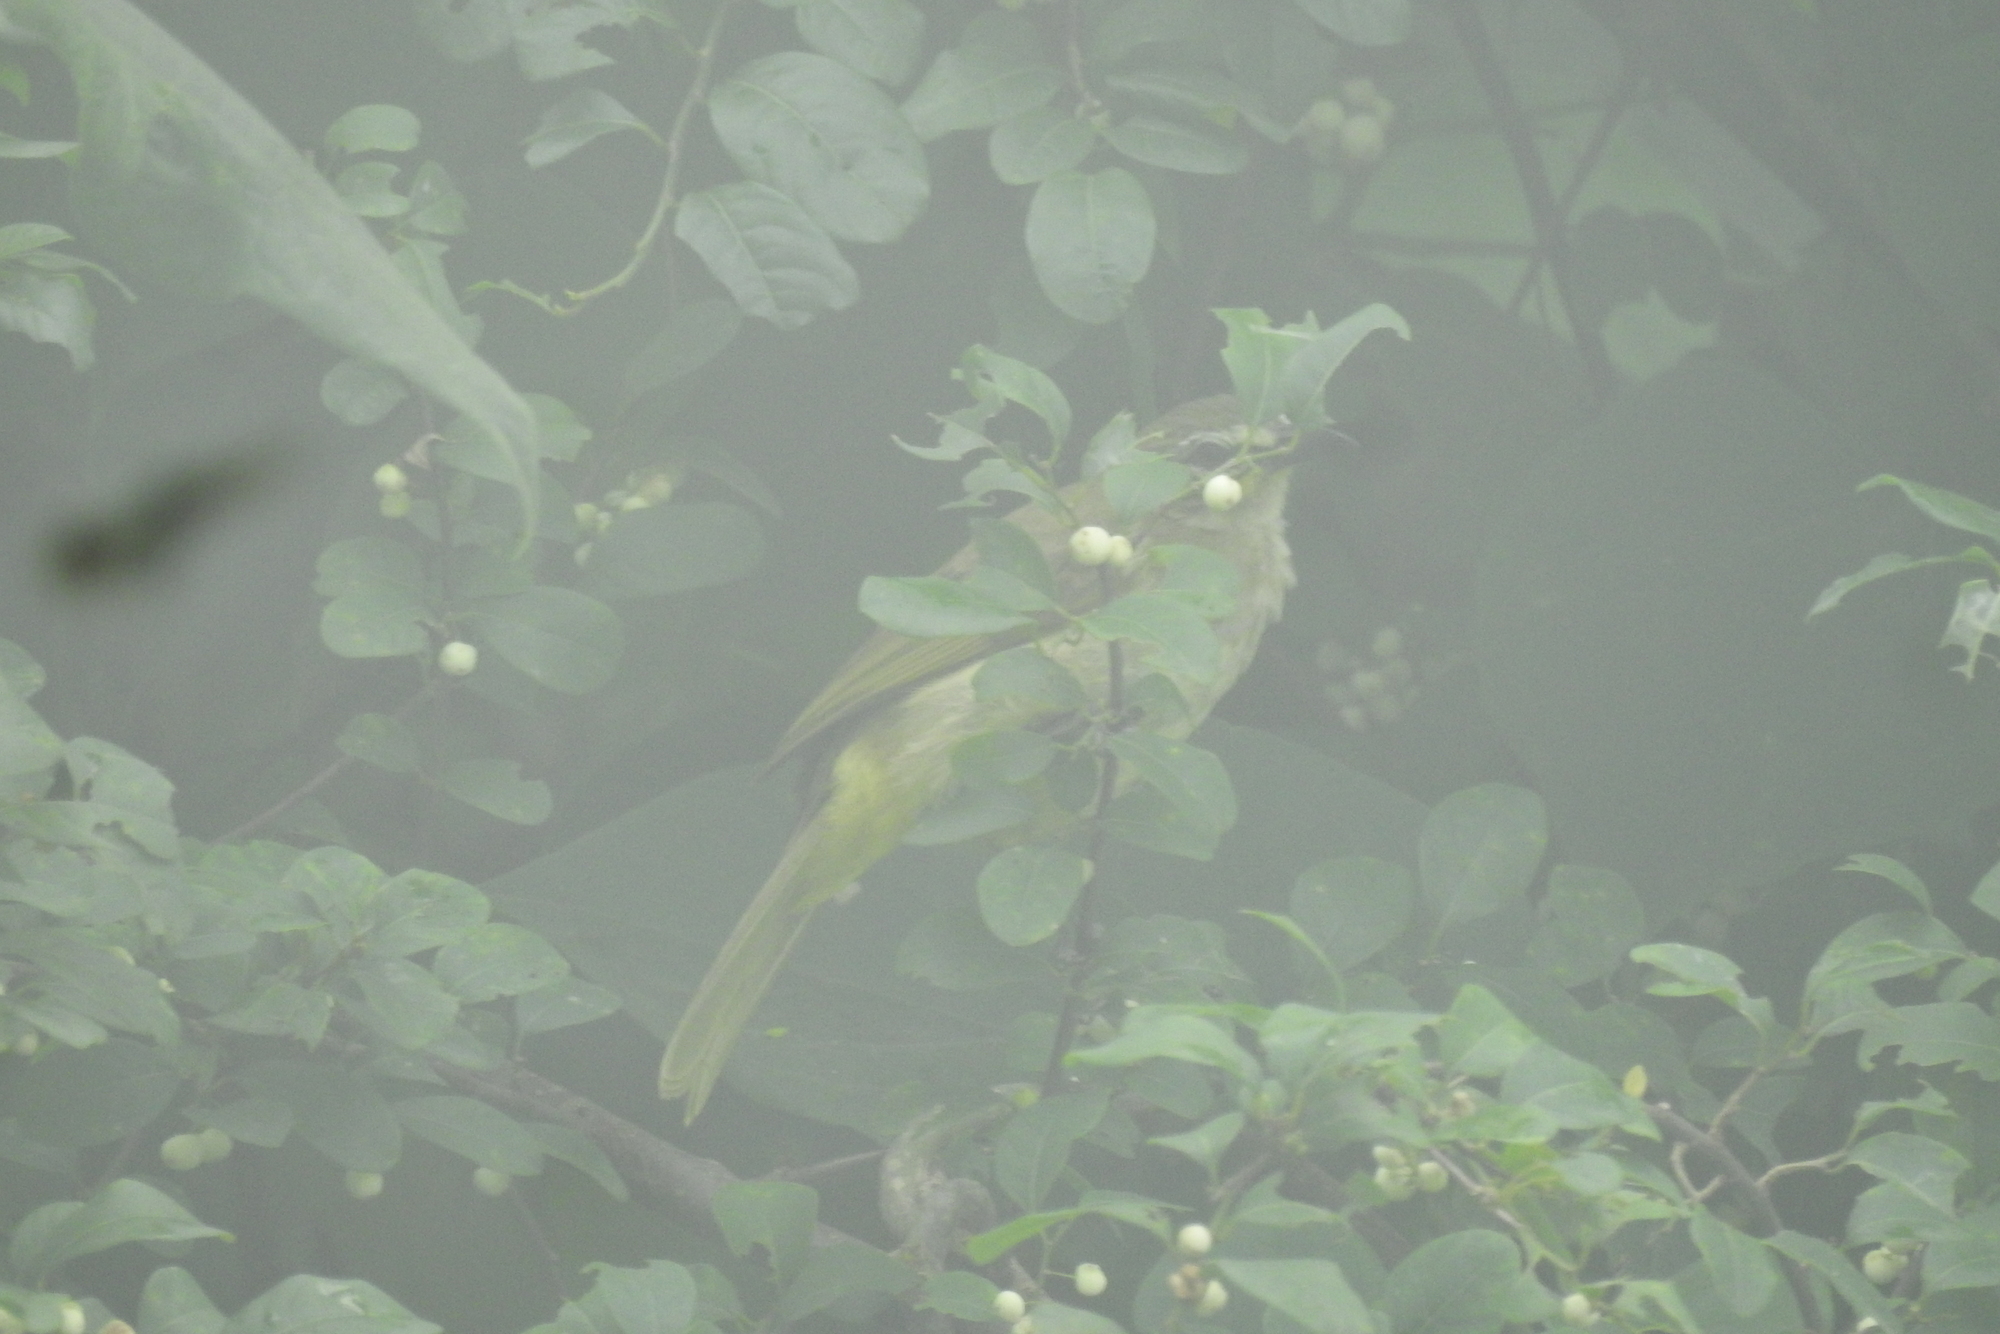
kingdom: Animalia
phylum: Chordata
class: Aves
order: Passeriformes
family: Pycnonotidae
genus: Pycnonotus
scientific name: Pycnonotus luteolus
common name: White-browed bulbul
